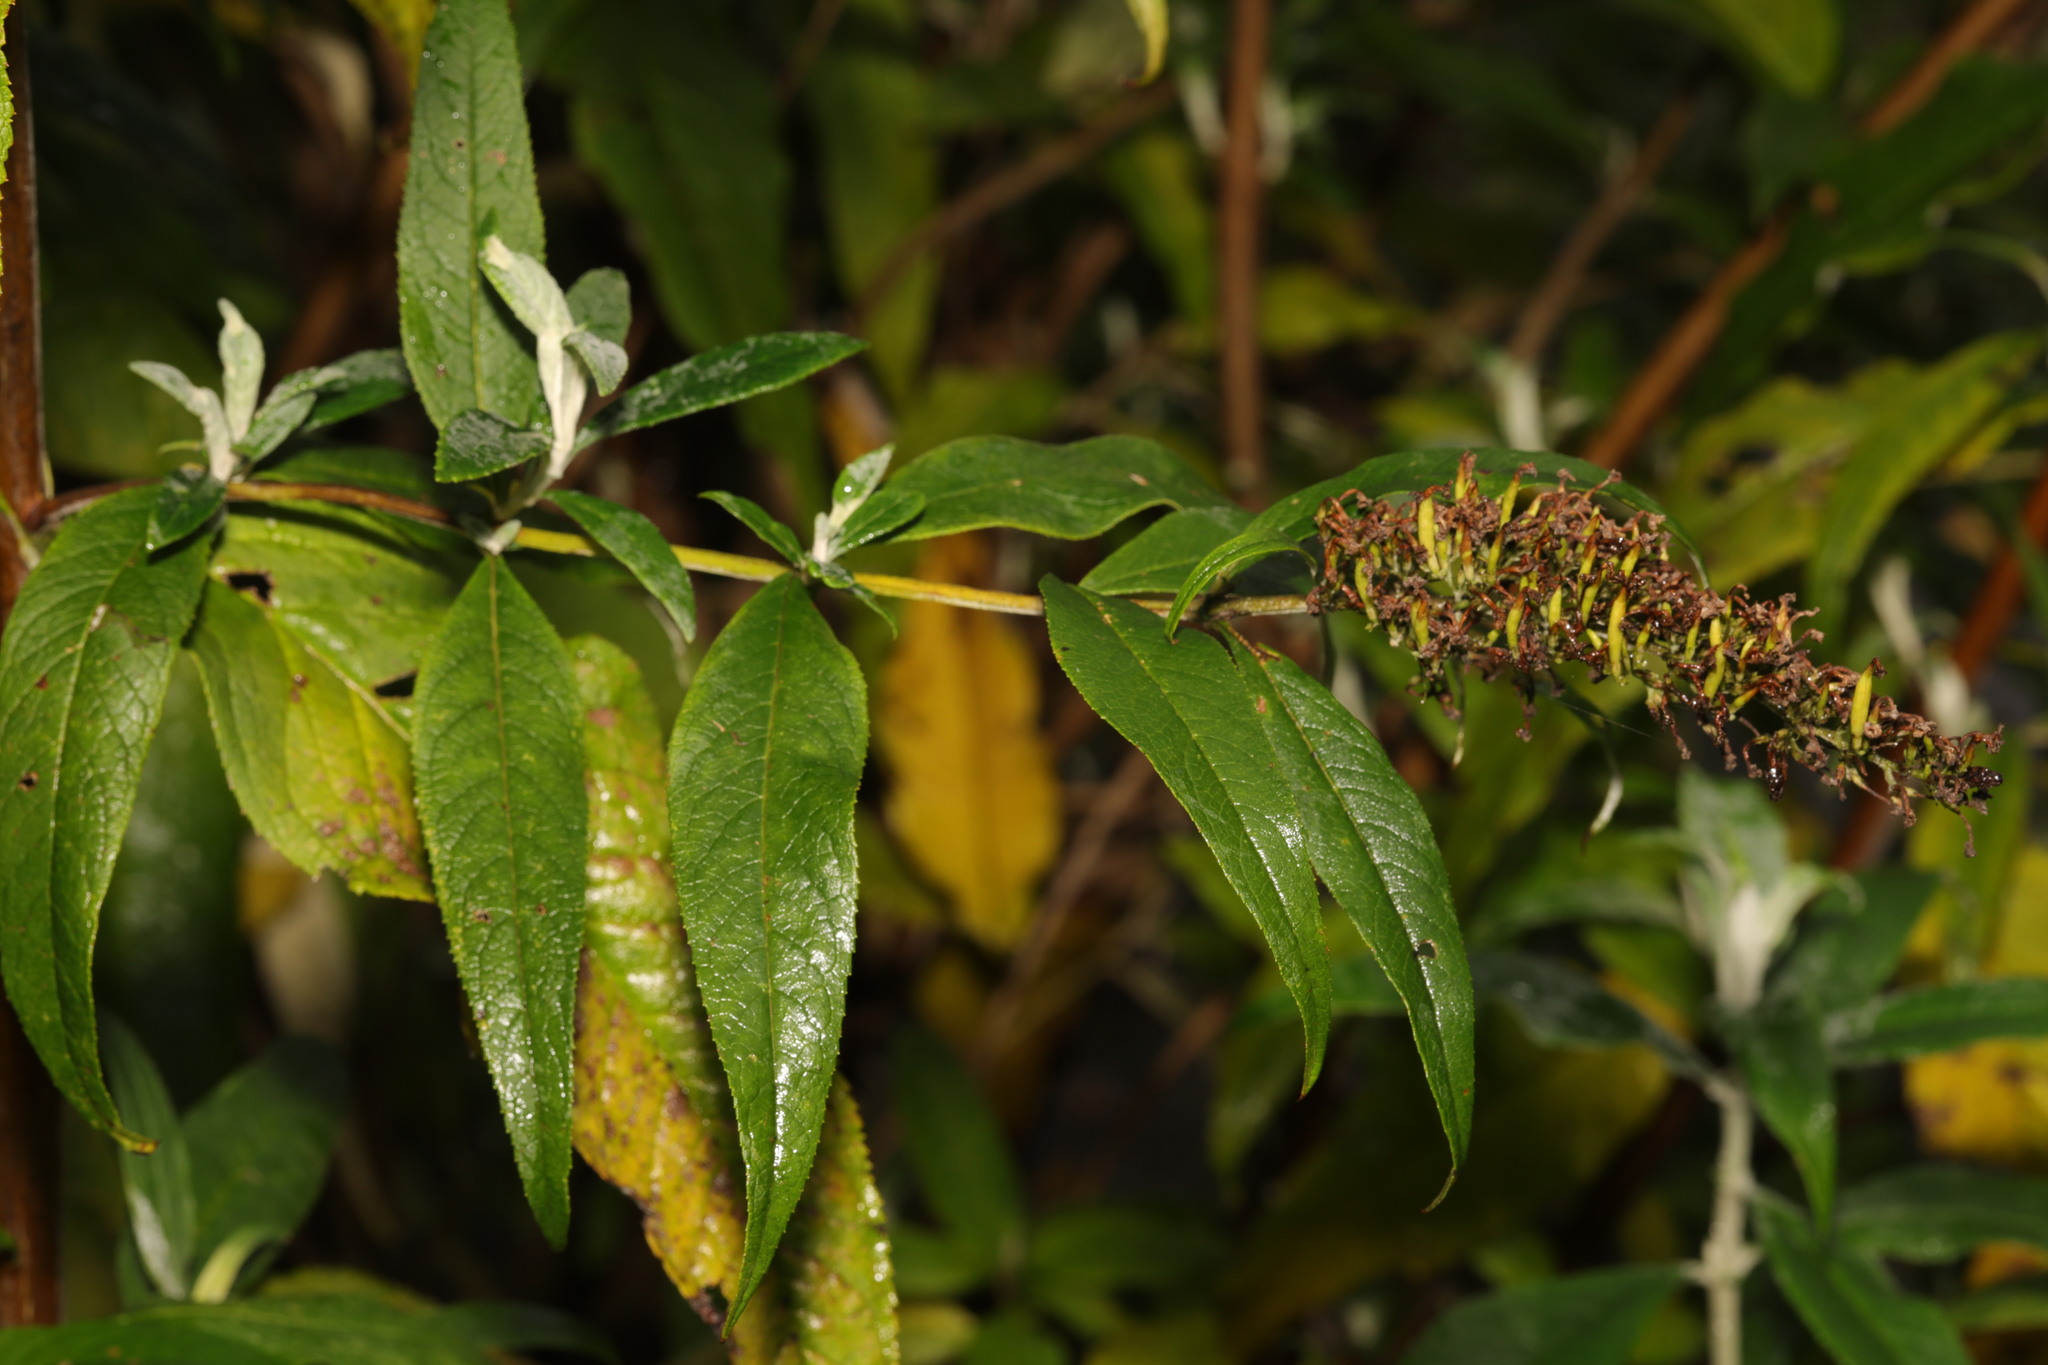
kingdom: Plantae
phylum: Tracheophyta
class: Magnoliopsida
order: Lamiales
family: Scrophulariaceae
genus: Buddleja
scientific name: Buddleja davidii
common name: Butterfly-bush
